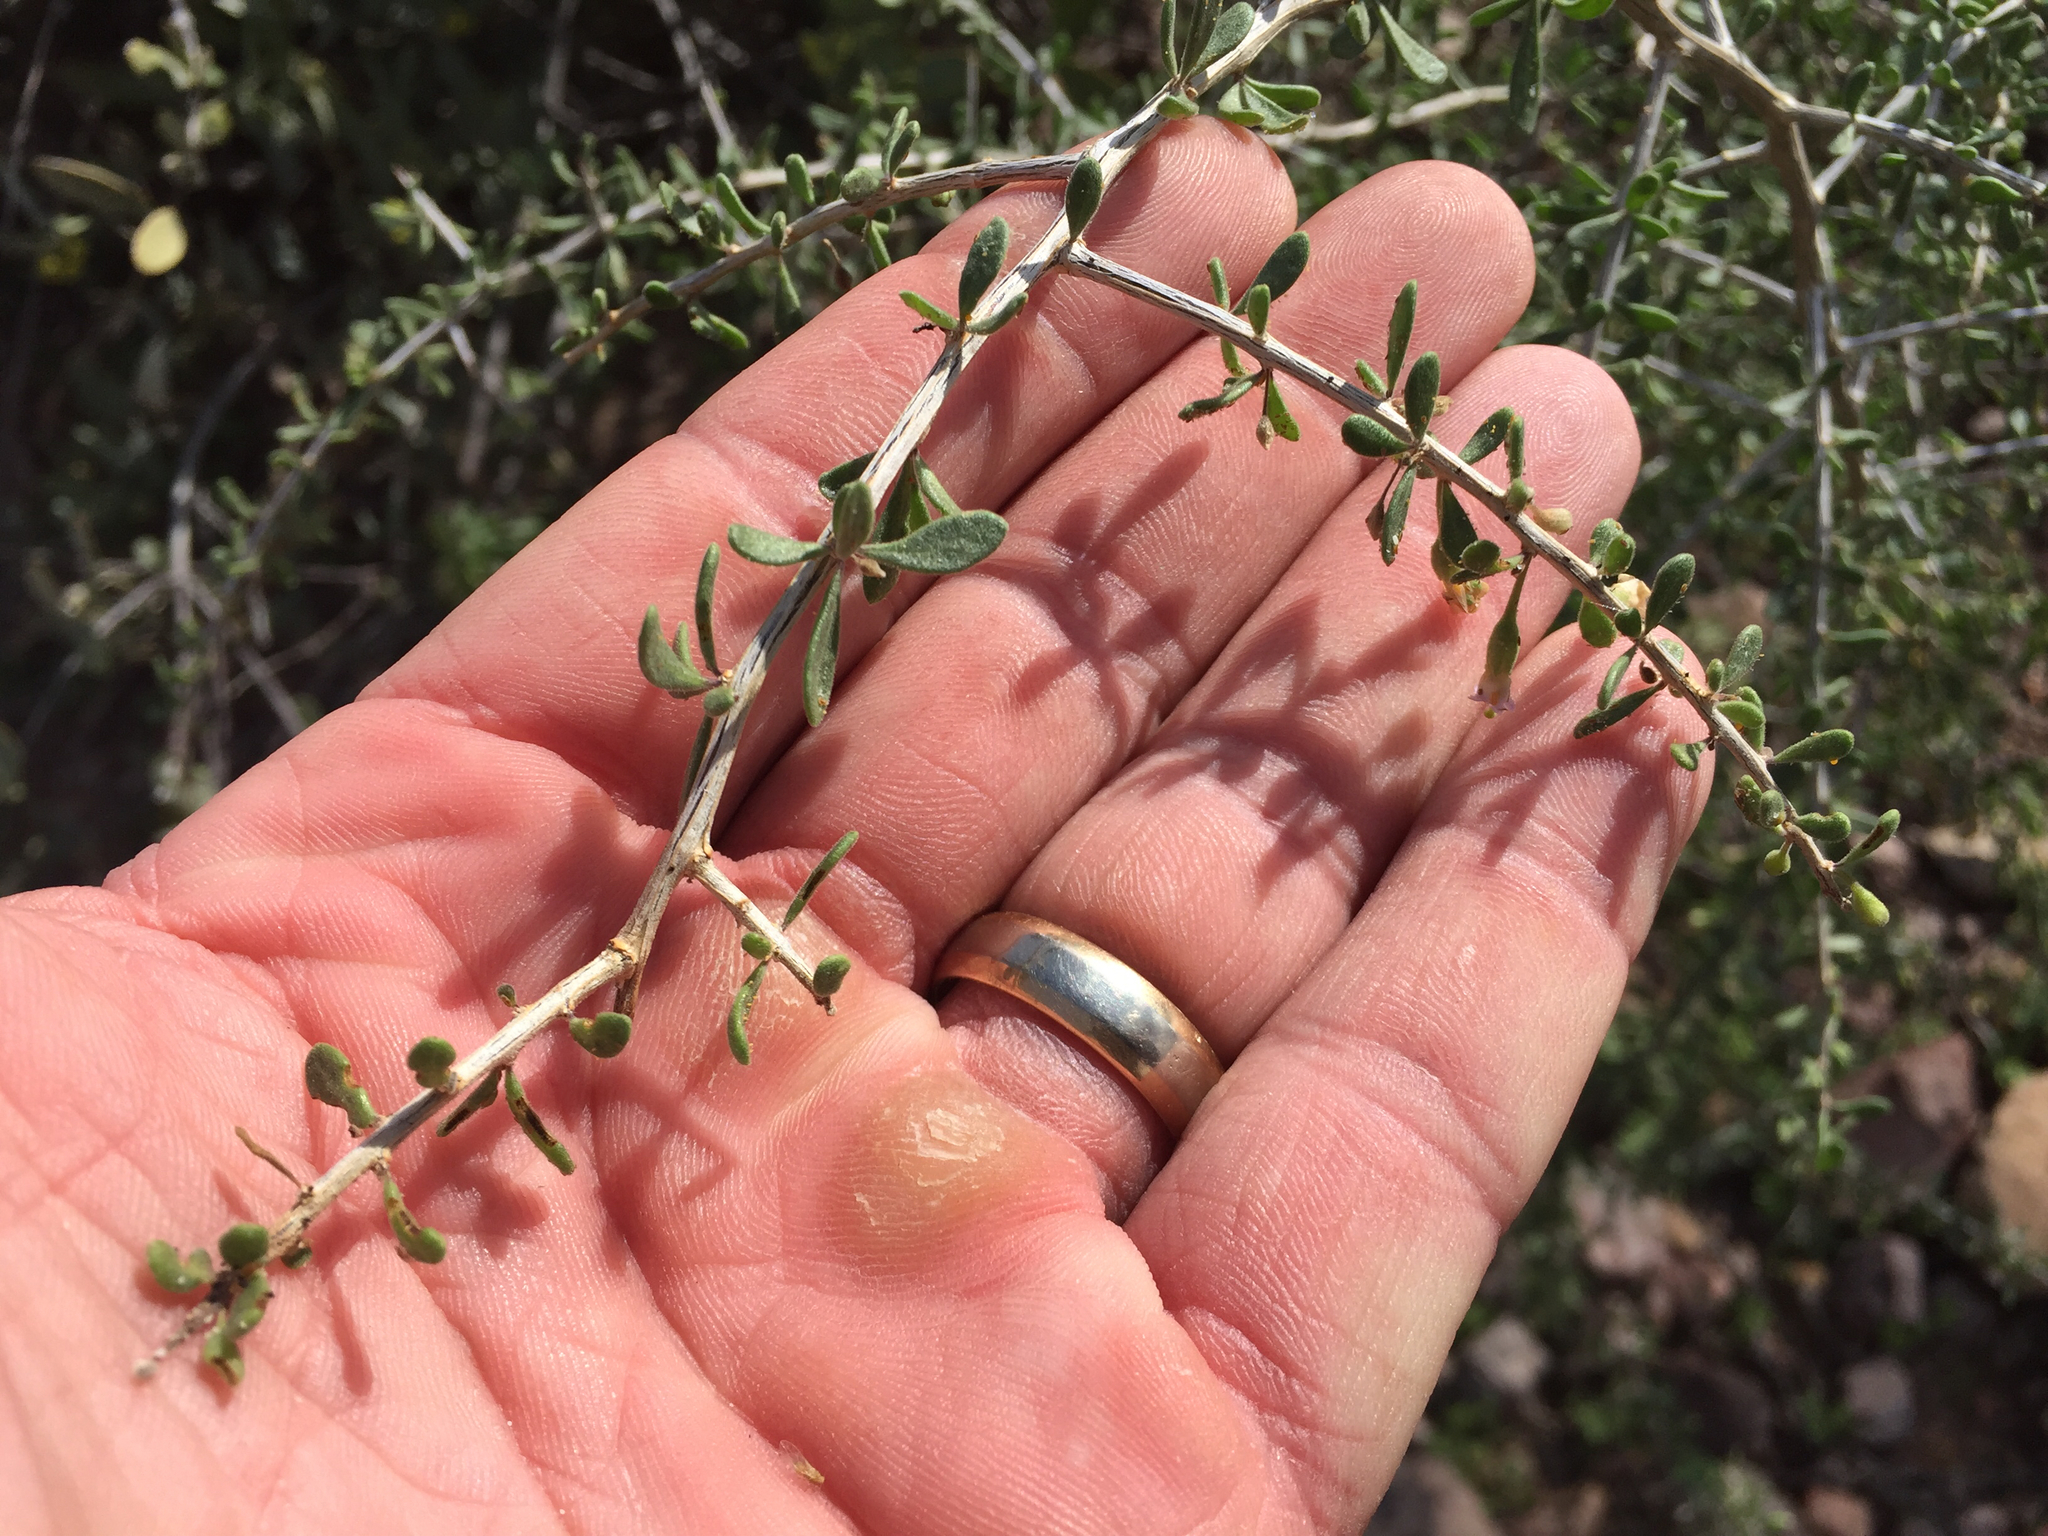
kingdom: Plantae
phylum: Tracheophyta
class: Magnoliopsida
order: Solanales
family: Solanaceae
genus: Lycium
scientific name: Lycium andersonii
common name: Water-jacket
